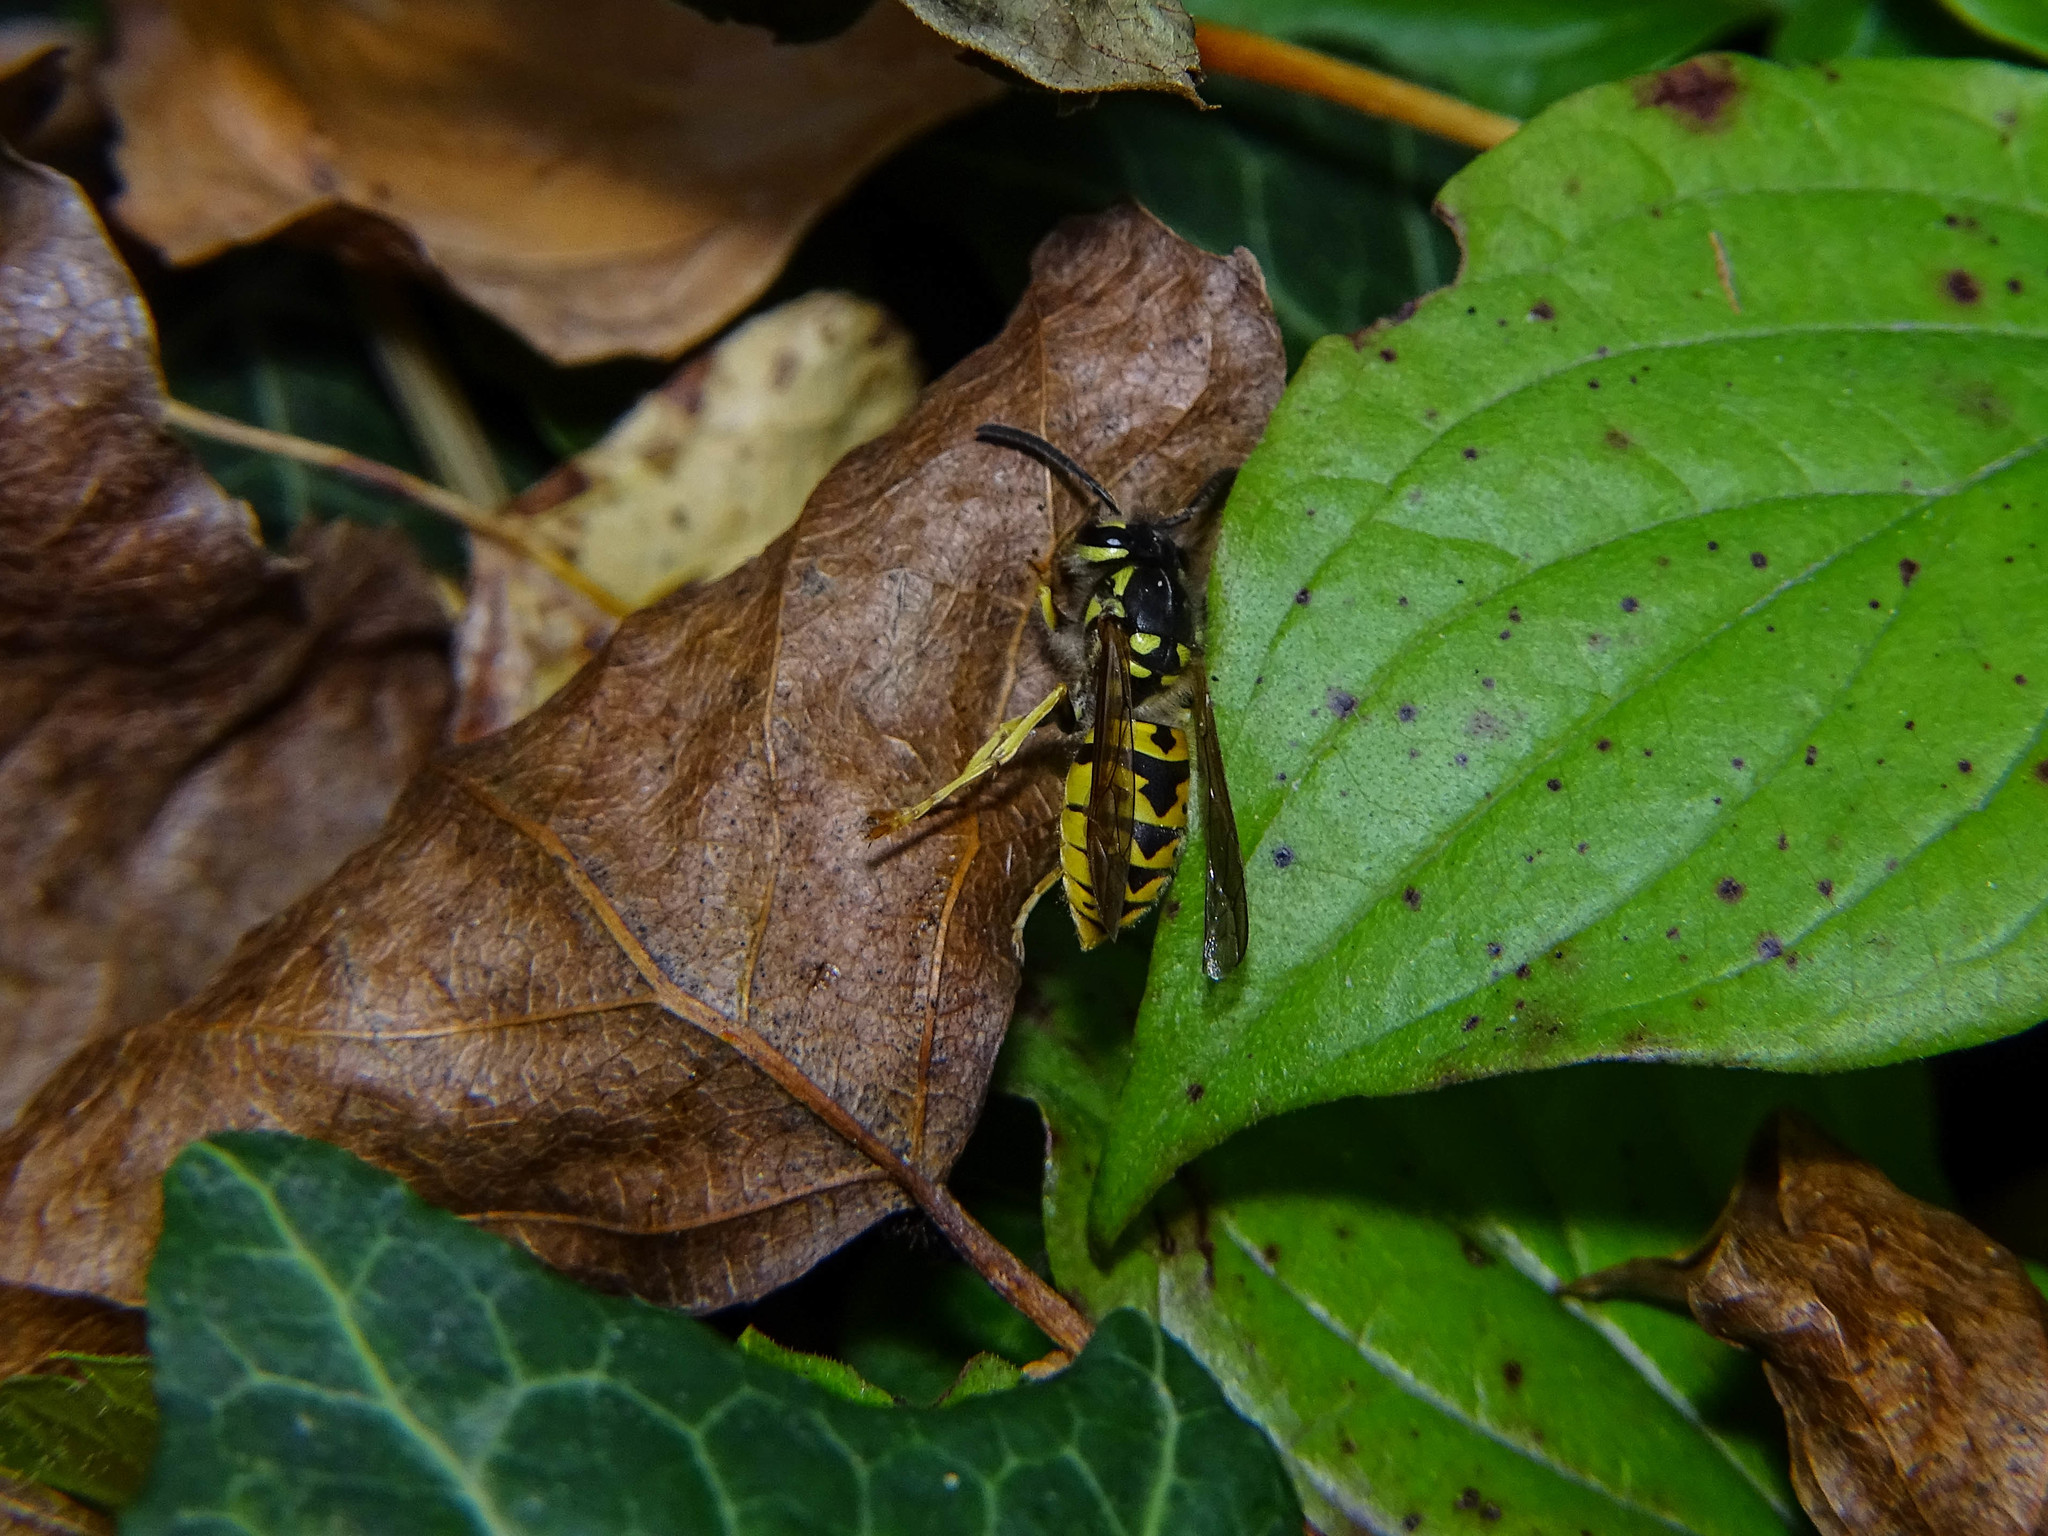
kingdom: Animalia
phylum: Arthropoda
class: Insecta
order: Hymenoptera
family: Vespidae
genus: Vespula
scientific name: Vespula germanica
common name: German wasp
